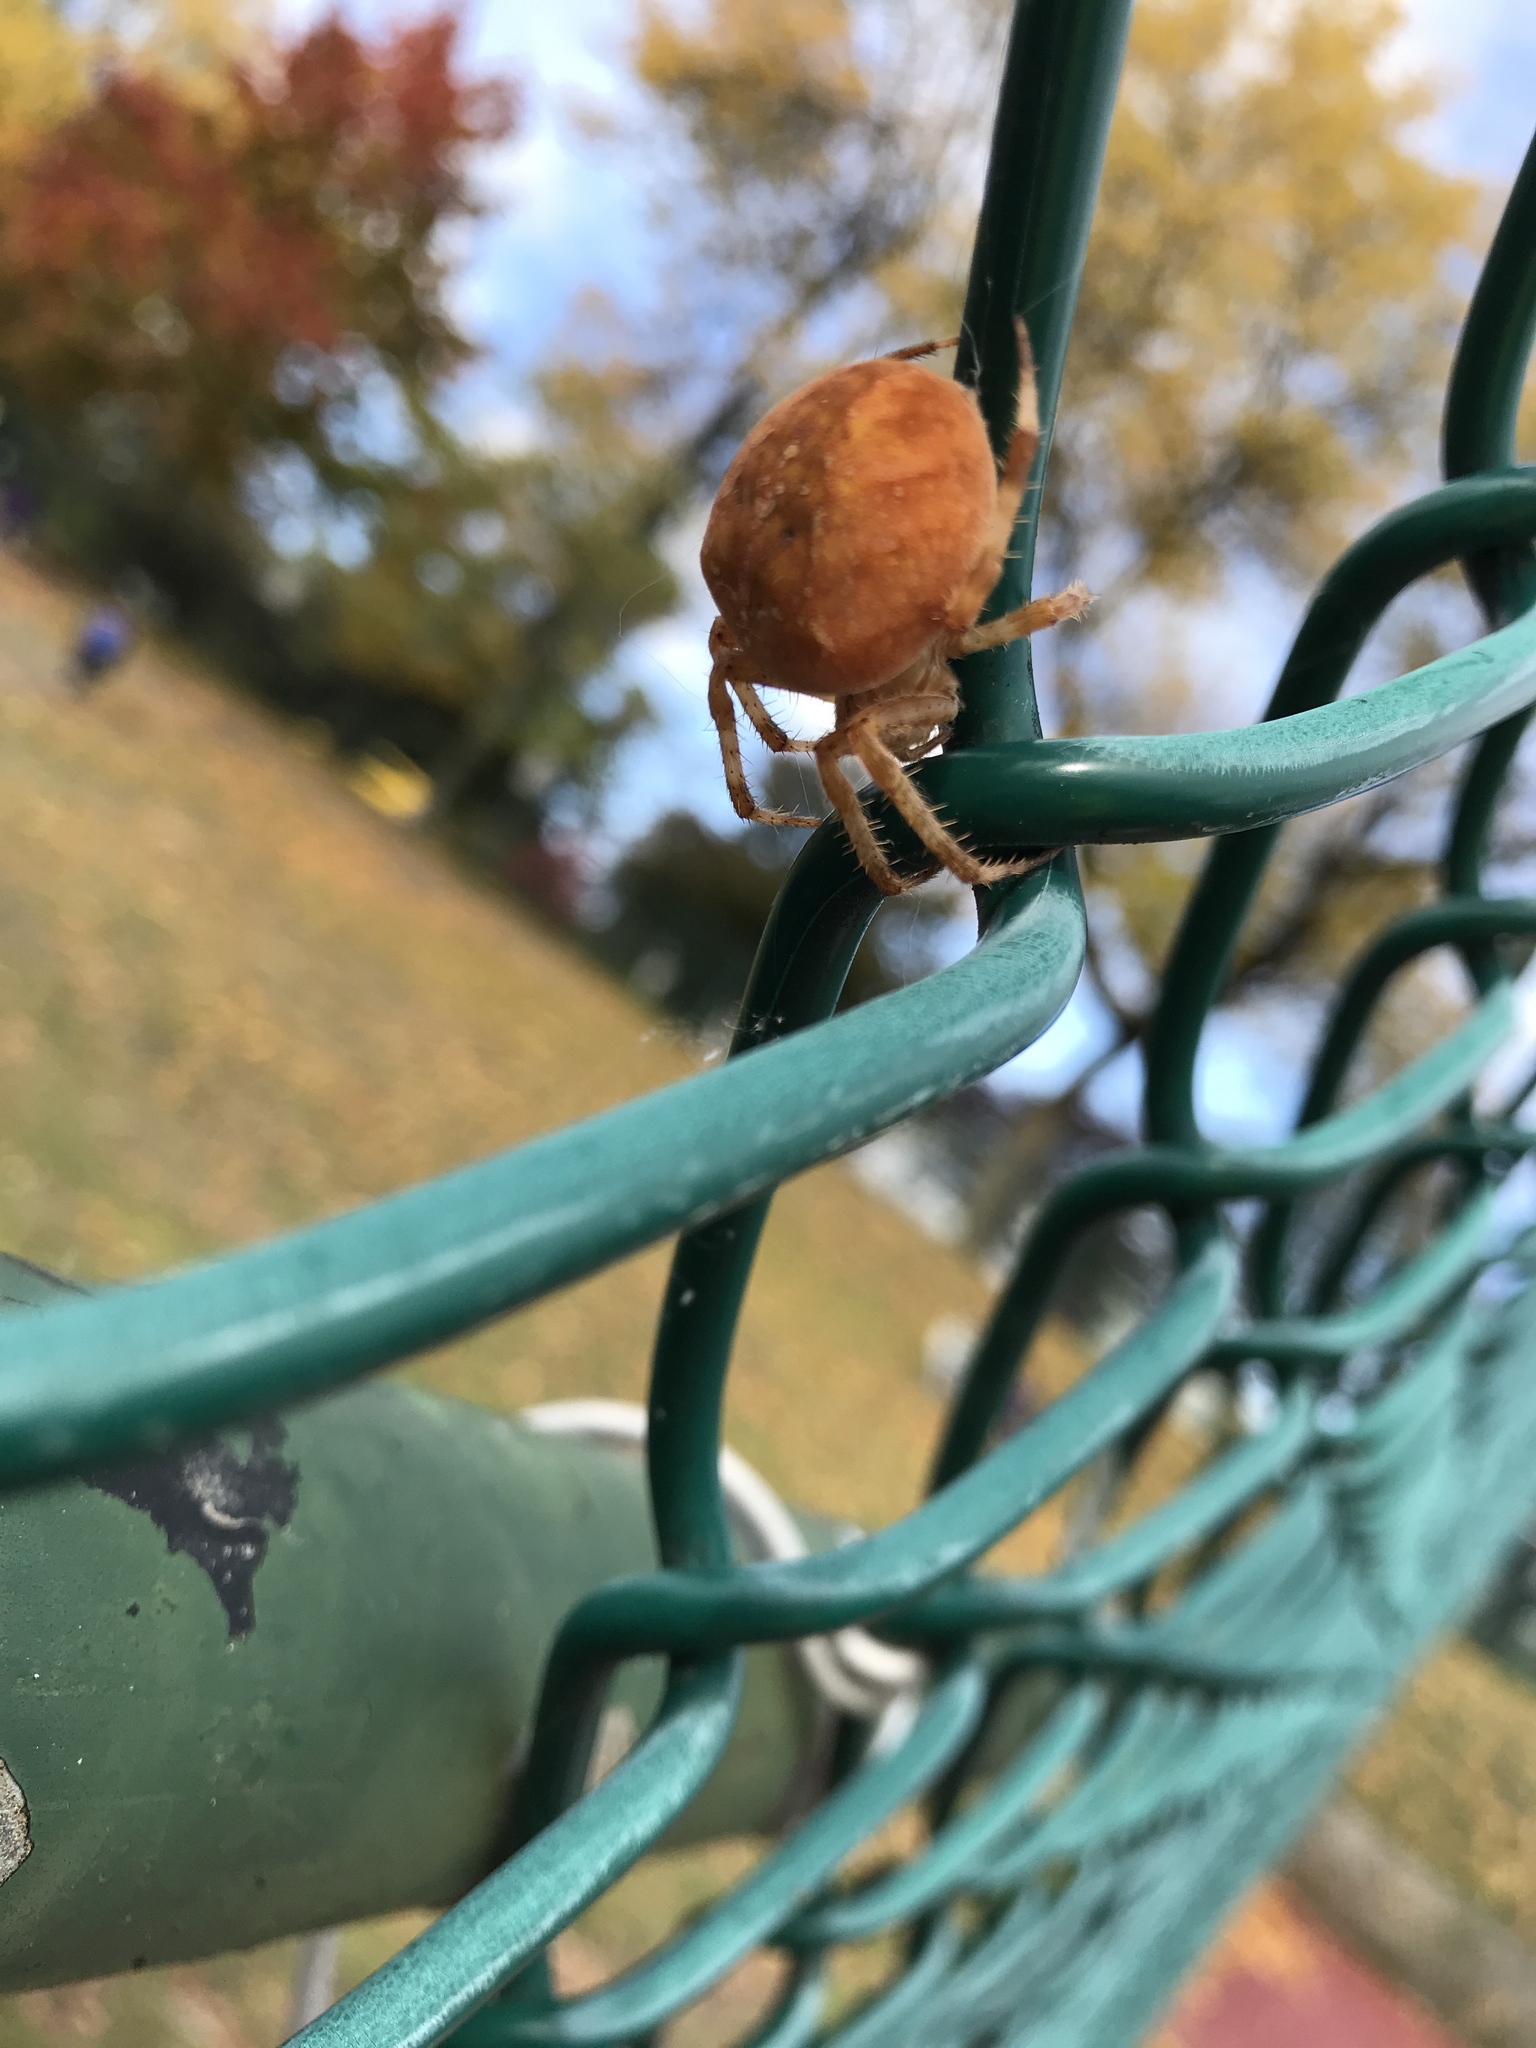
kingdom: Animalia
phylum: Arthropoda
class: Arachnida
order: Araneae
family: Araneidae
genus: Araneus
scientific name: Araneus diadematus
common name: Cross orbweaver
